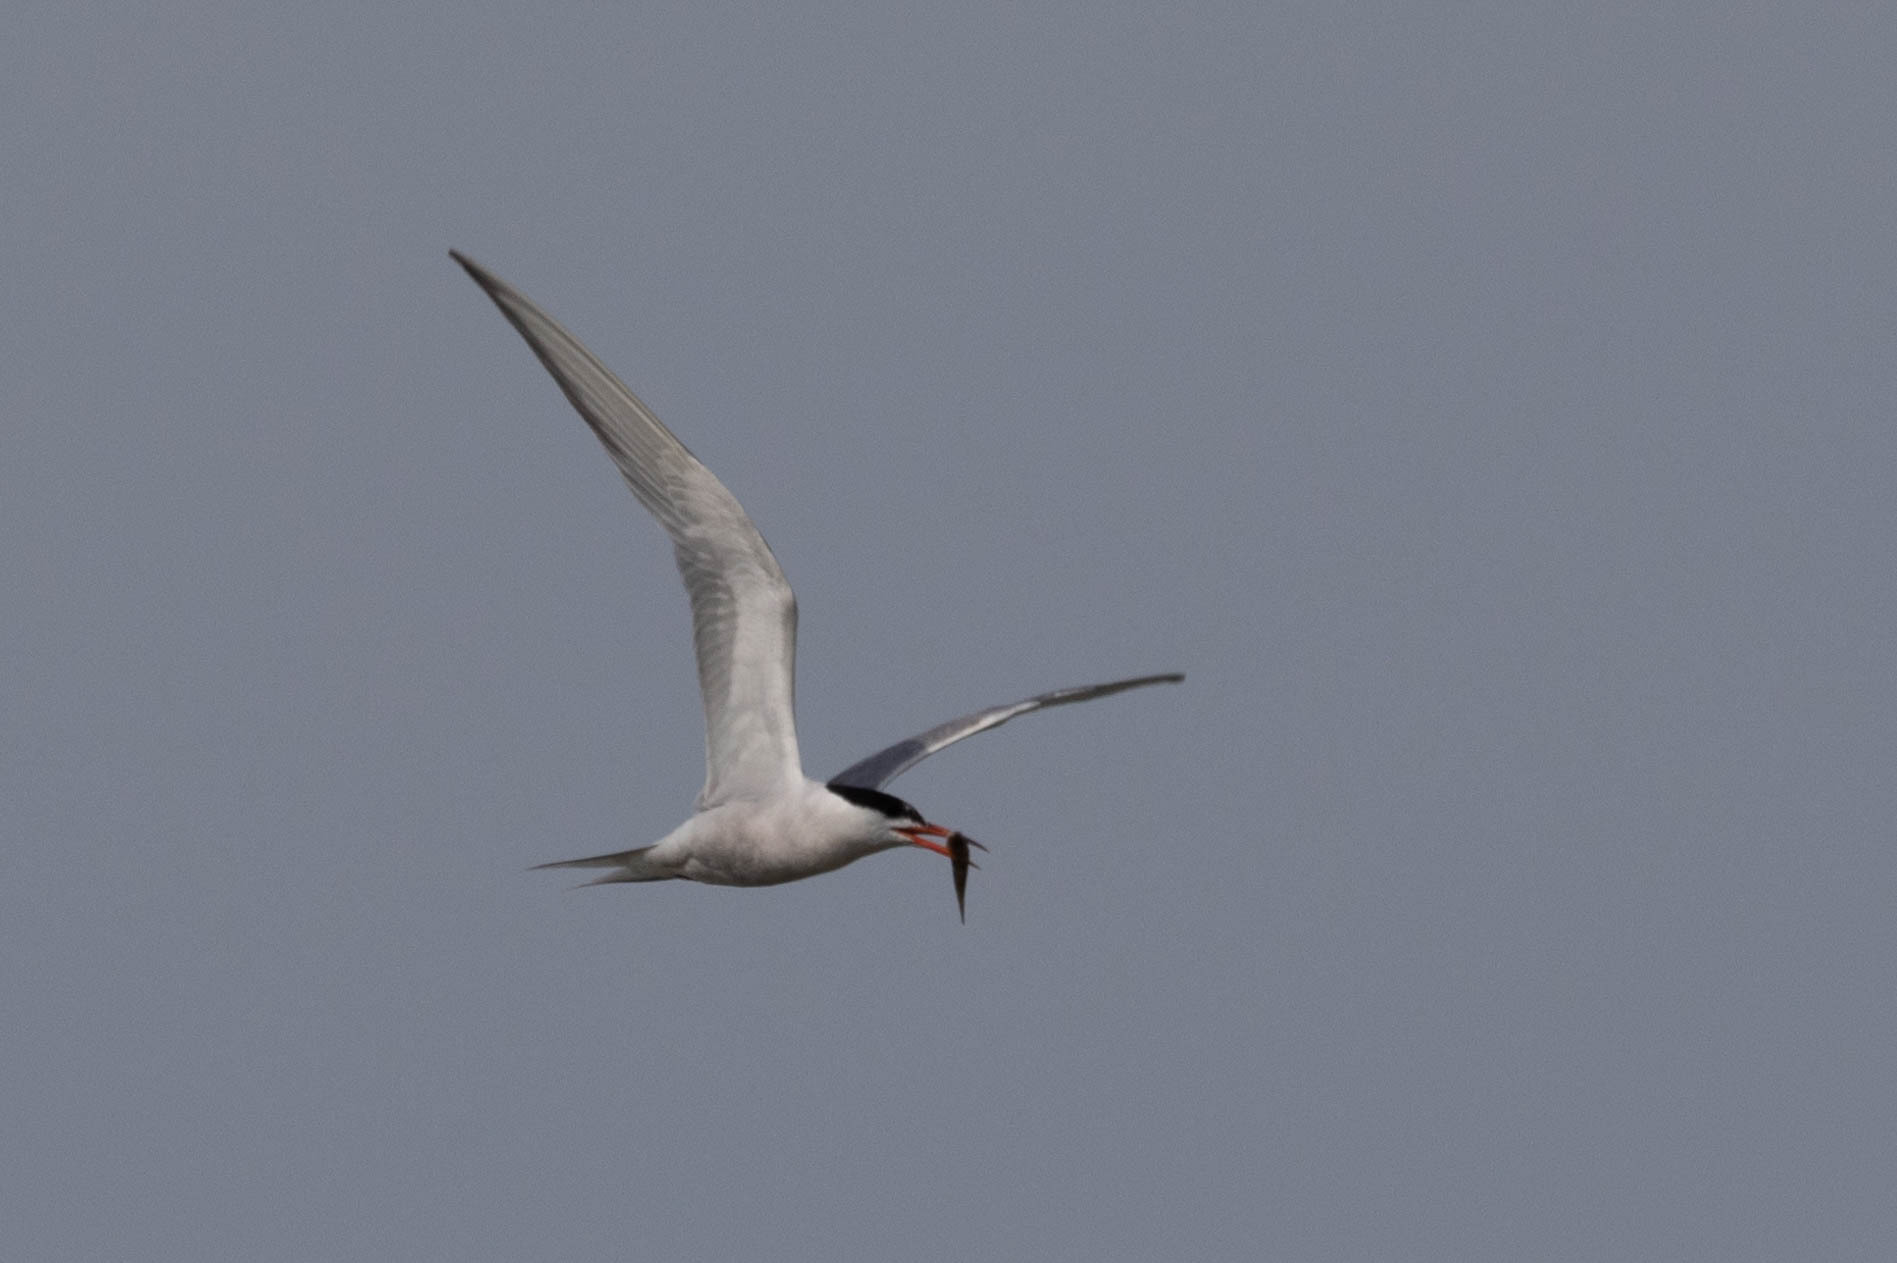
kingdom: Animalia
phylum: Chordata
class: Aves
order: Charadriiformes
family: Laridae
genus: Sterna
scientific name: Sterna hirundo
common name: Common tern
